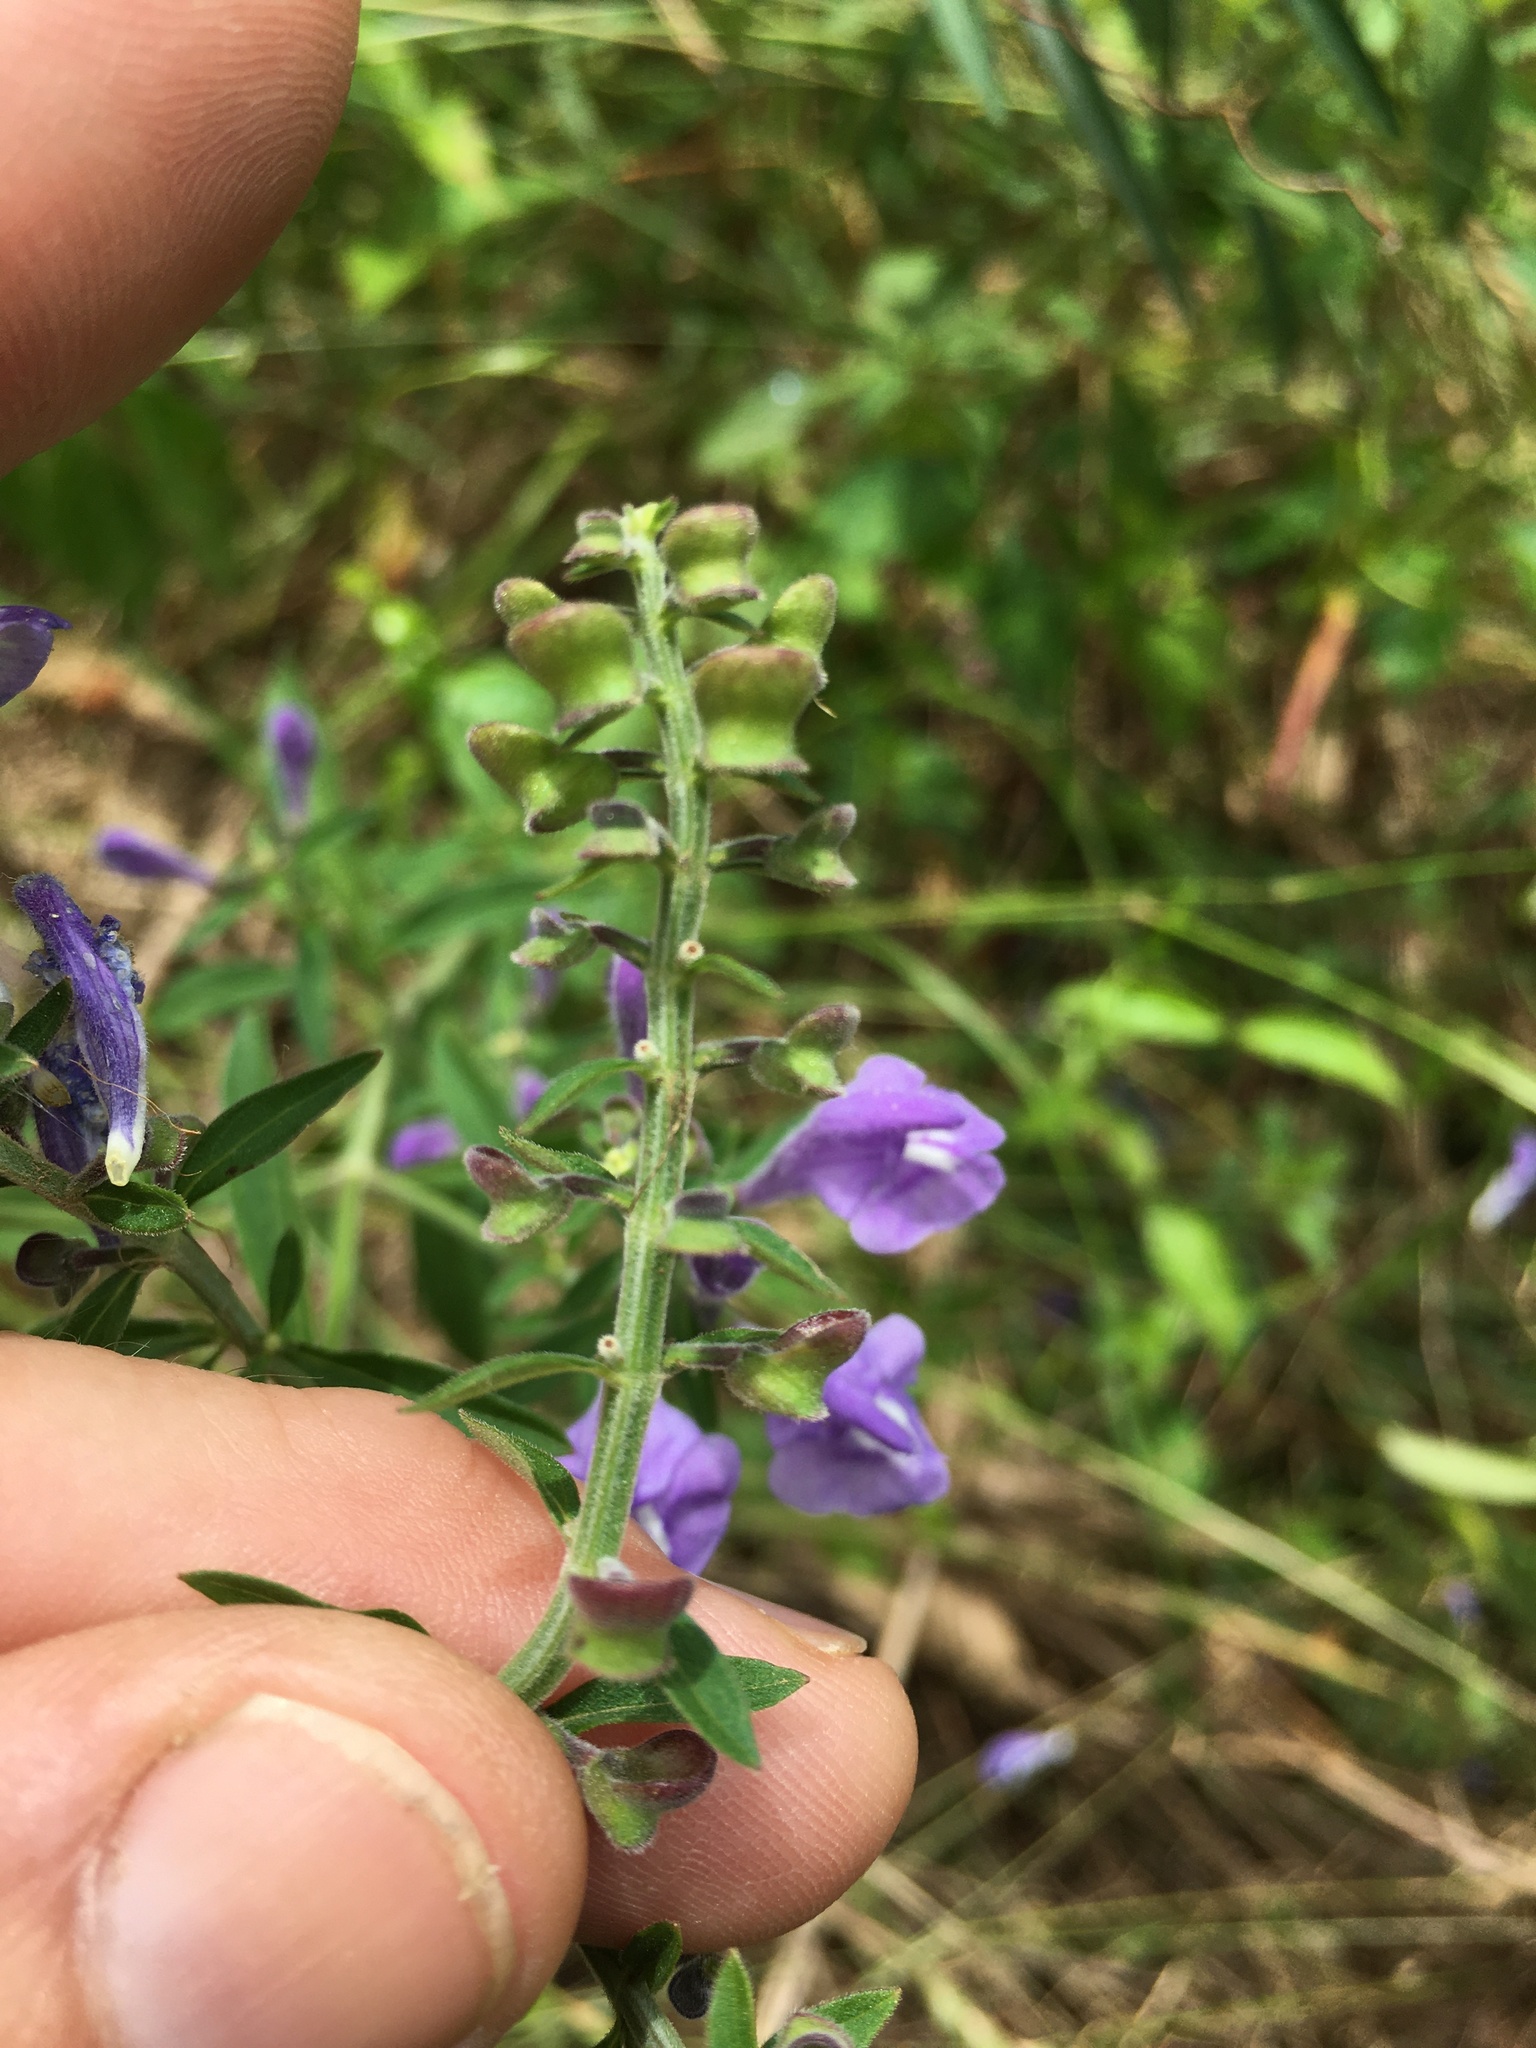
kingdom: Plantae
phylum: Tracheophyta
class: Magnoliopsida
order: Lamiales
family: Lamiaceae
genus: Scutellaria
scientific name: Scutellaria integrifolia
